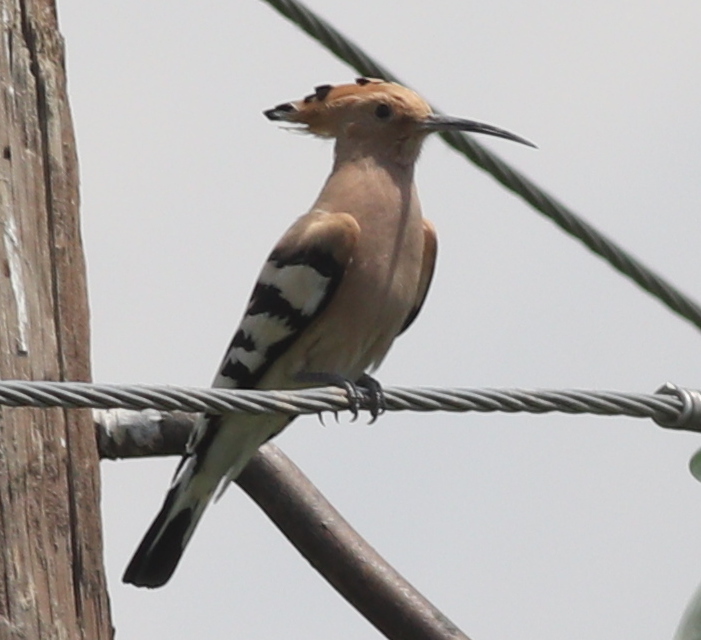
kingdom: Animalia
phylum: Chordata
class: Aves
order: Bucerotiformes
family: Upupidae
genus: Upupa
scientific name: Upupa epops
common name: Eurasian hoopoe
